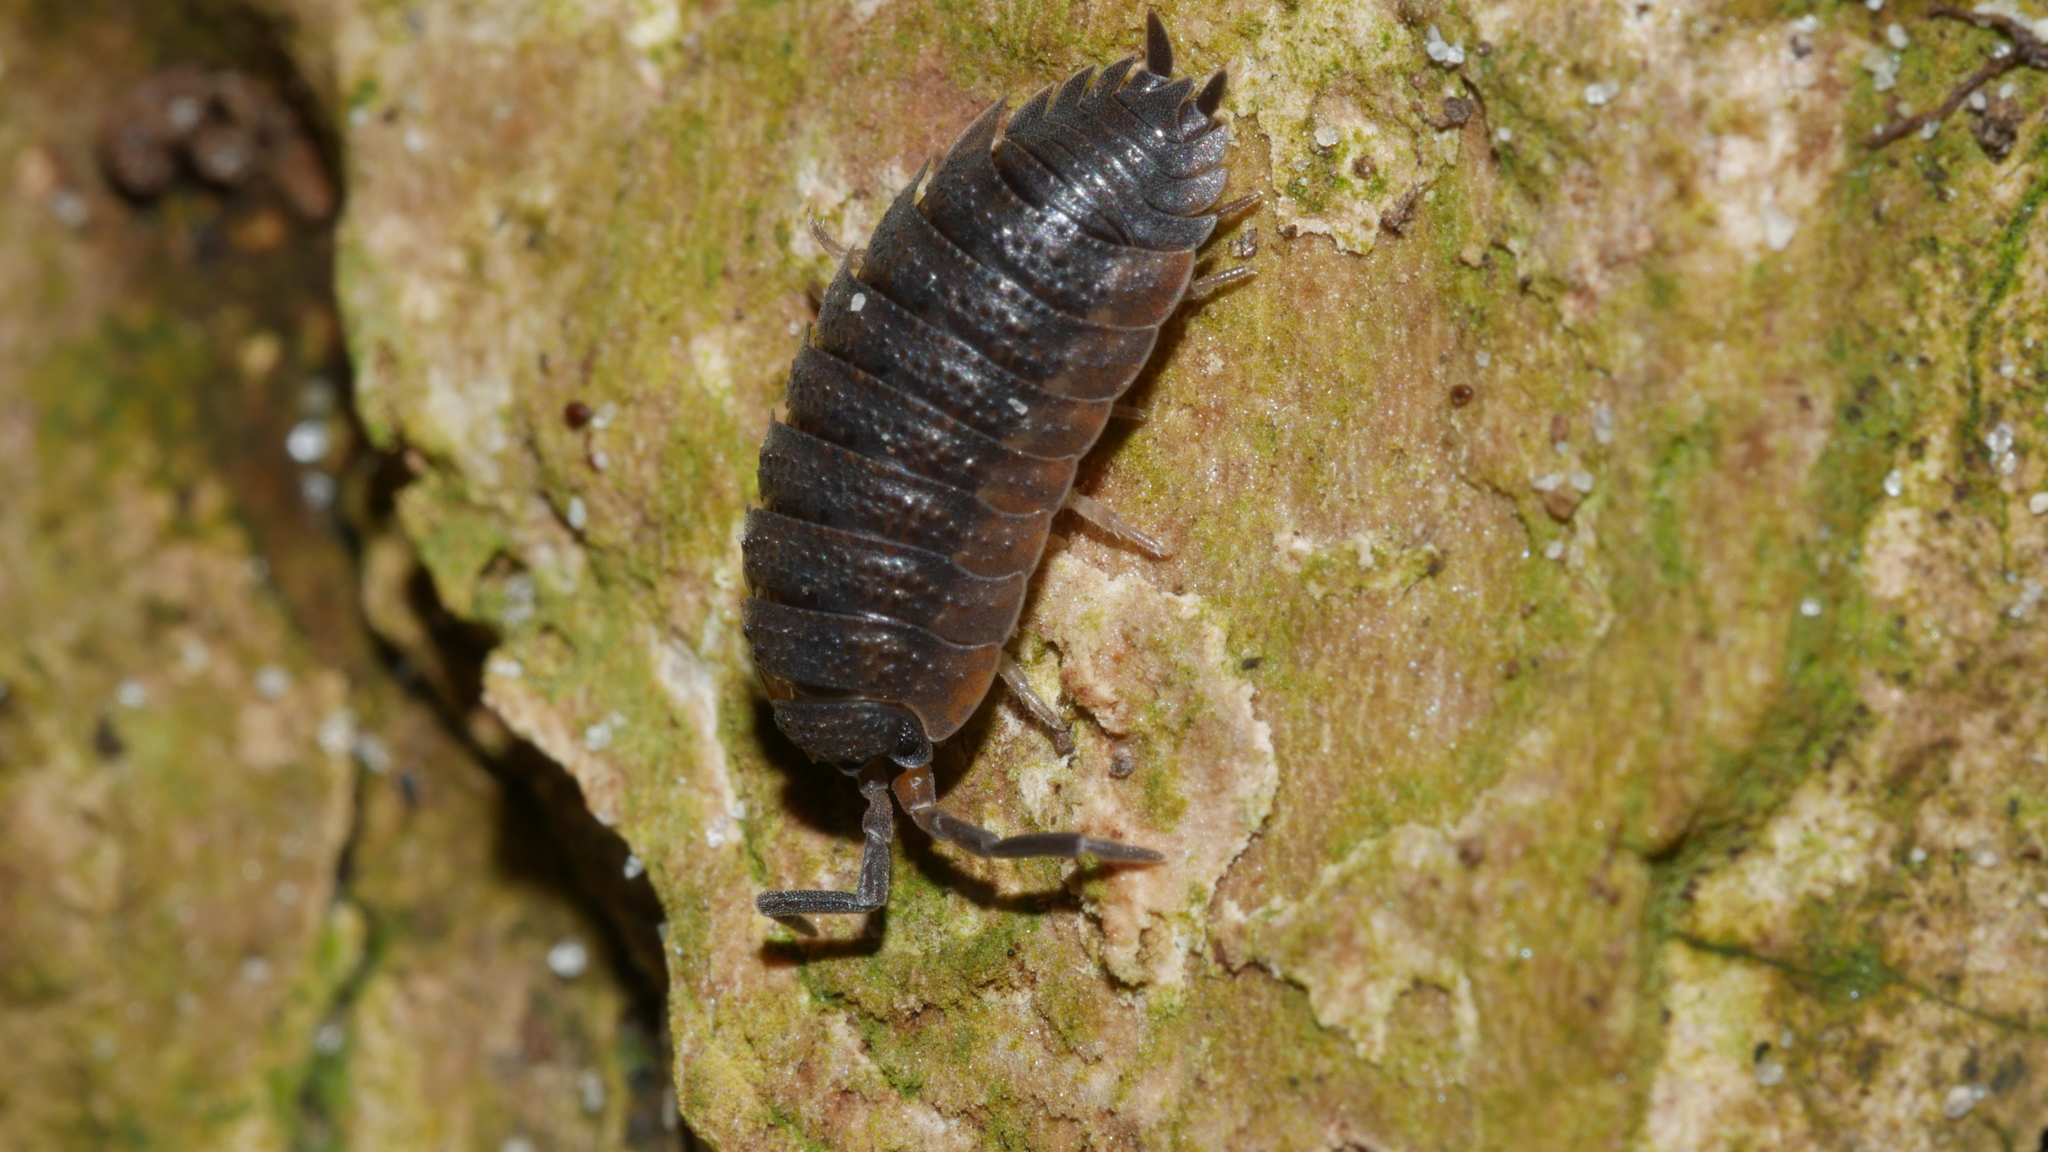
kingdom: Animalia
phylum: Arthropoda
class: Malacostraca
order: Isopoda
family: Porcellionidae
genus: Porcellio
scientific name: Porcellio scaber
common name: Common rough woodlouse
